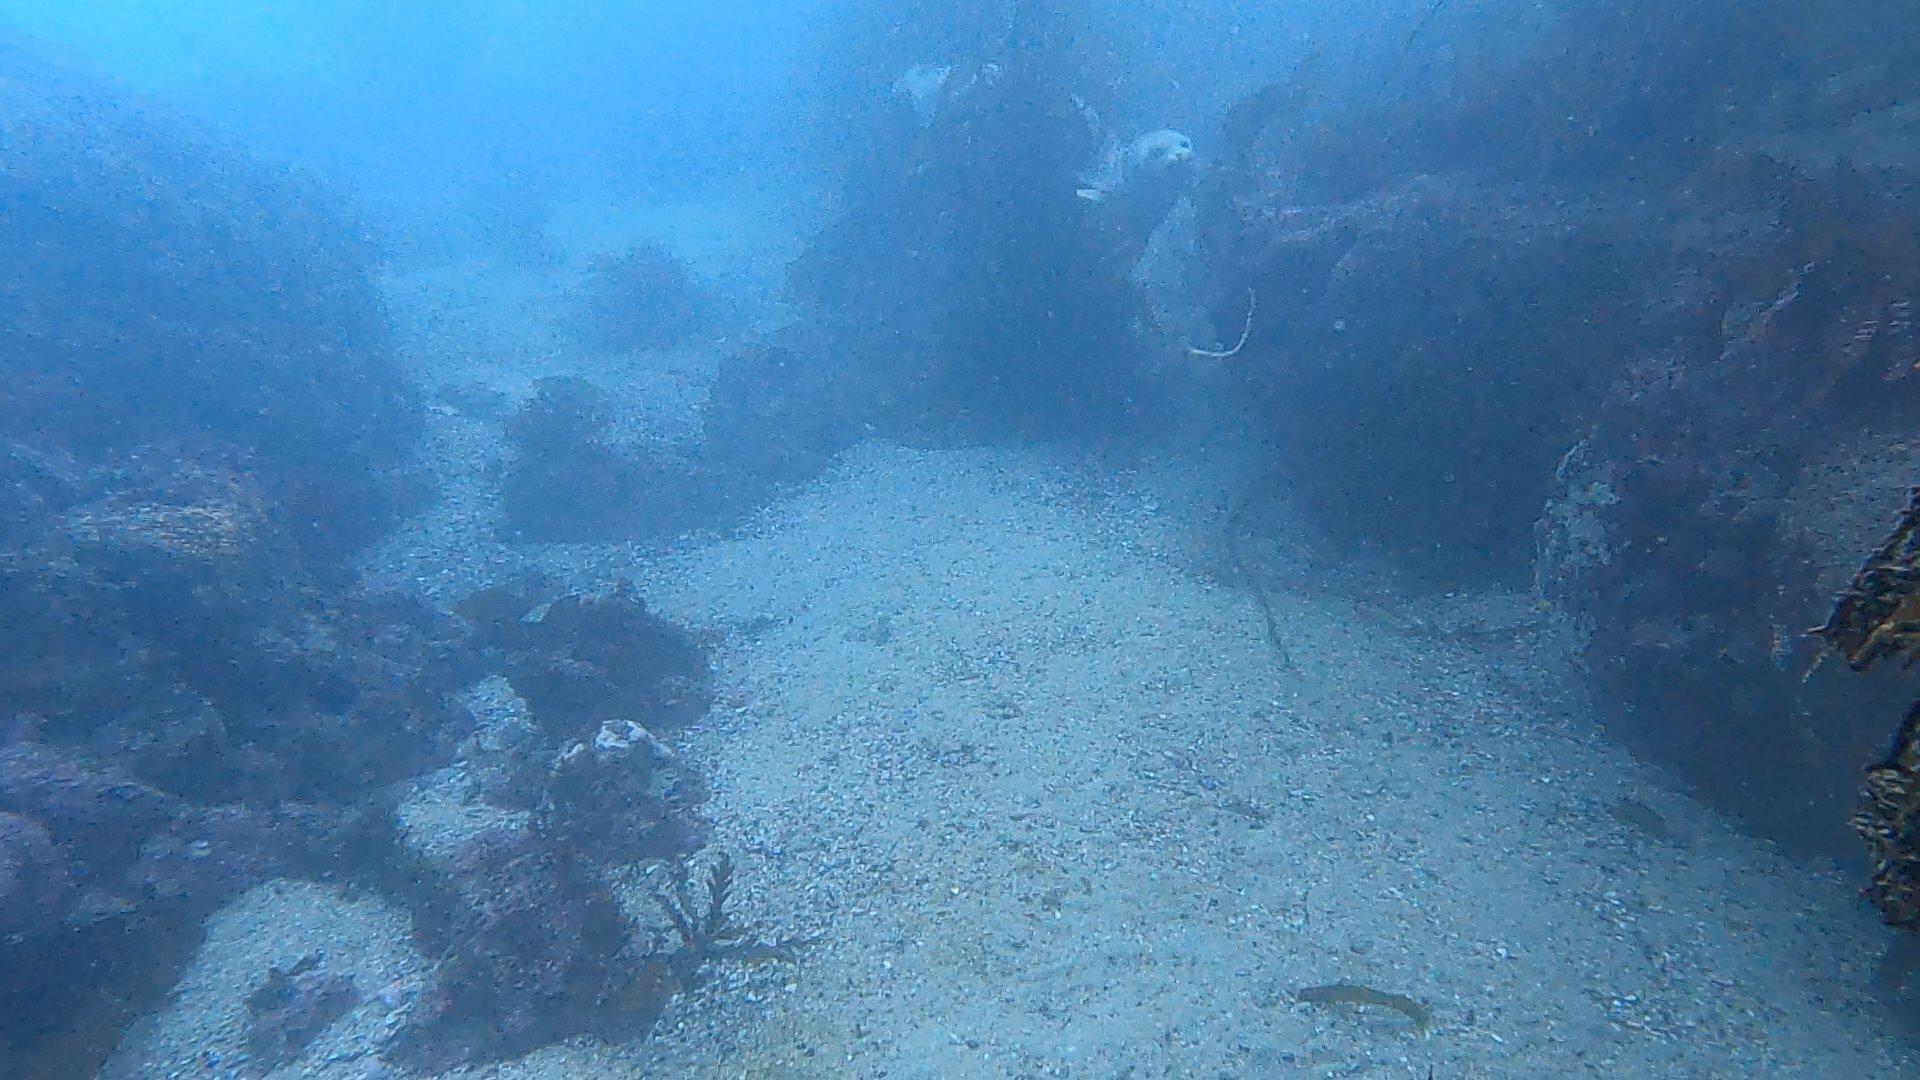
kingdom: Animalia
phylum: Chordata
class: Mammalia
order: Carnivora
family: Phocidae
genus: Phoca
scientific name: Phoca vitulina
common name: Harbor seal
